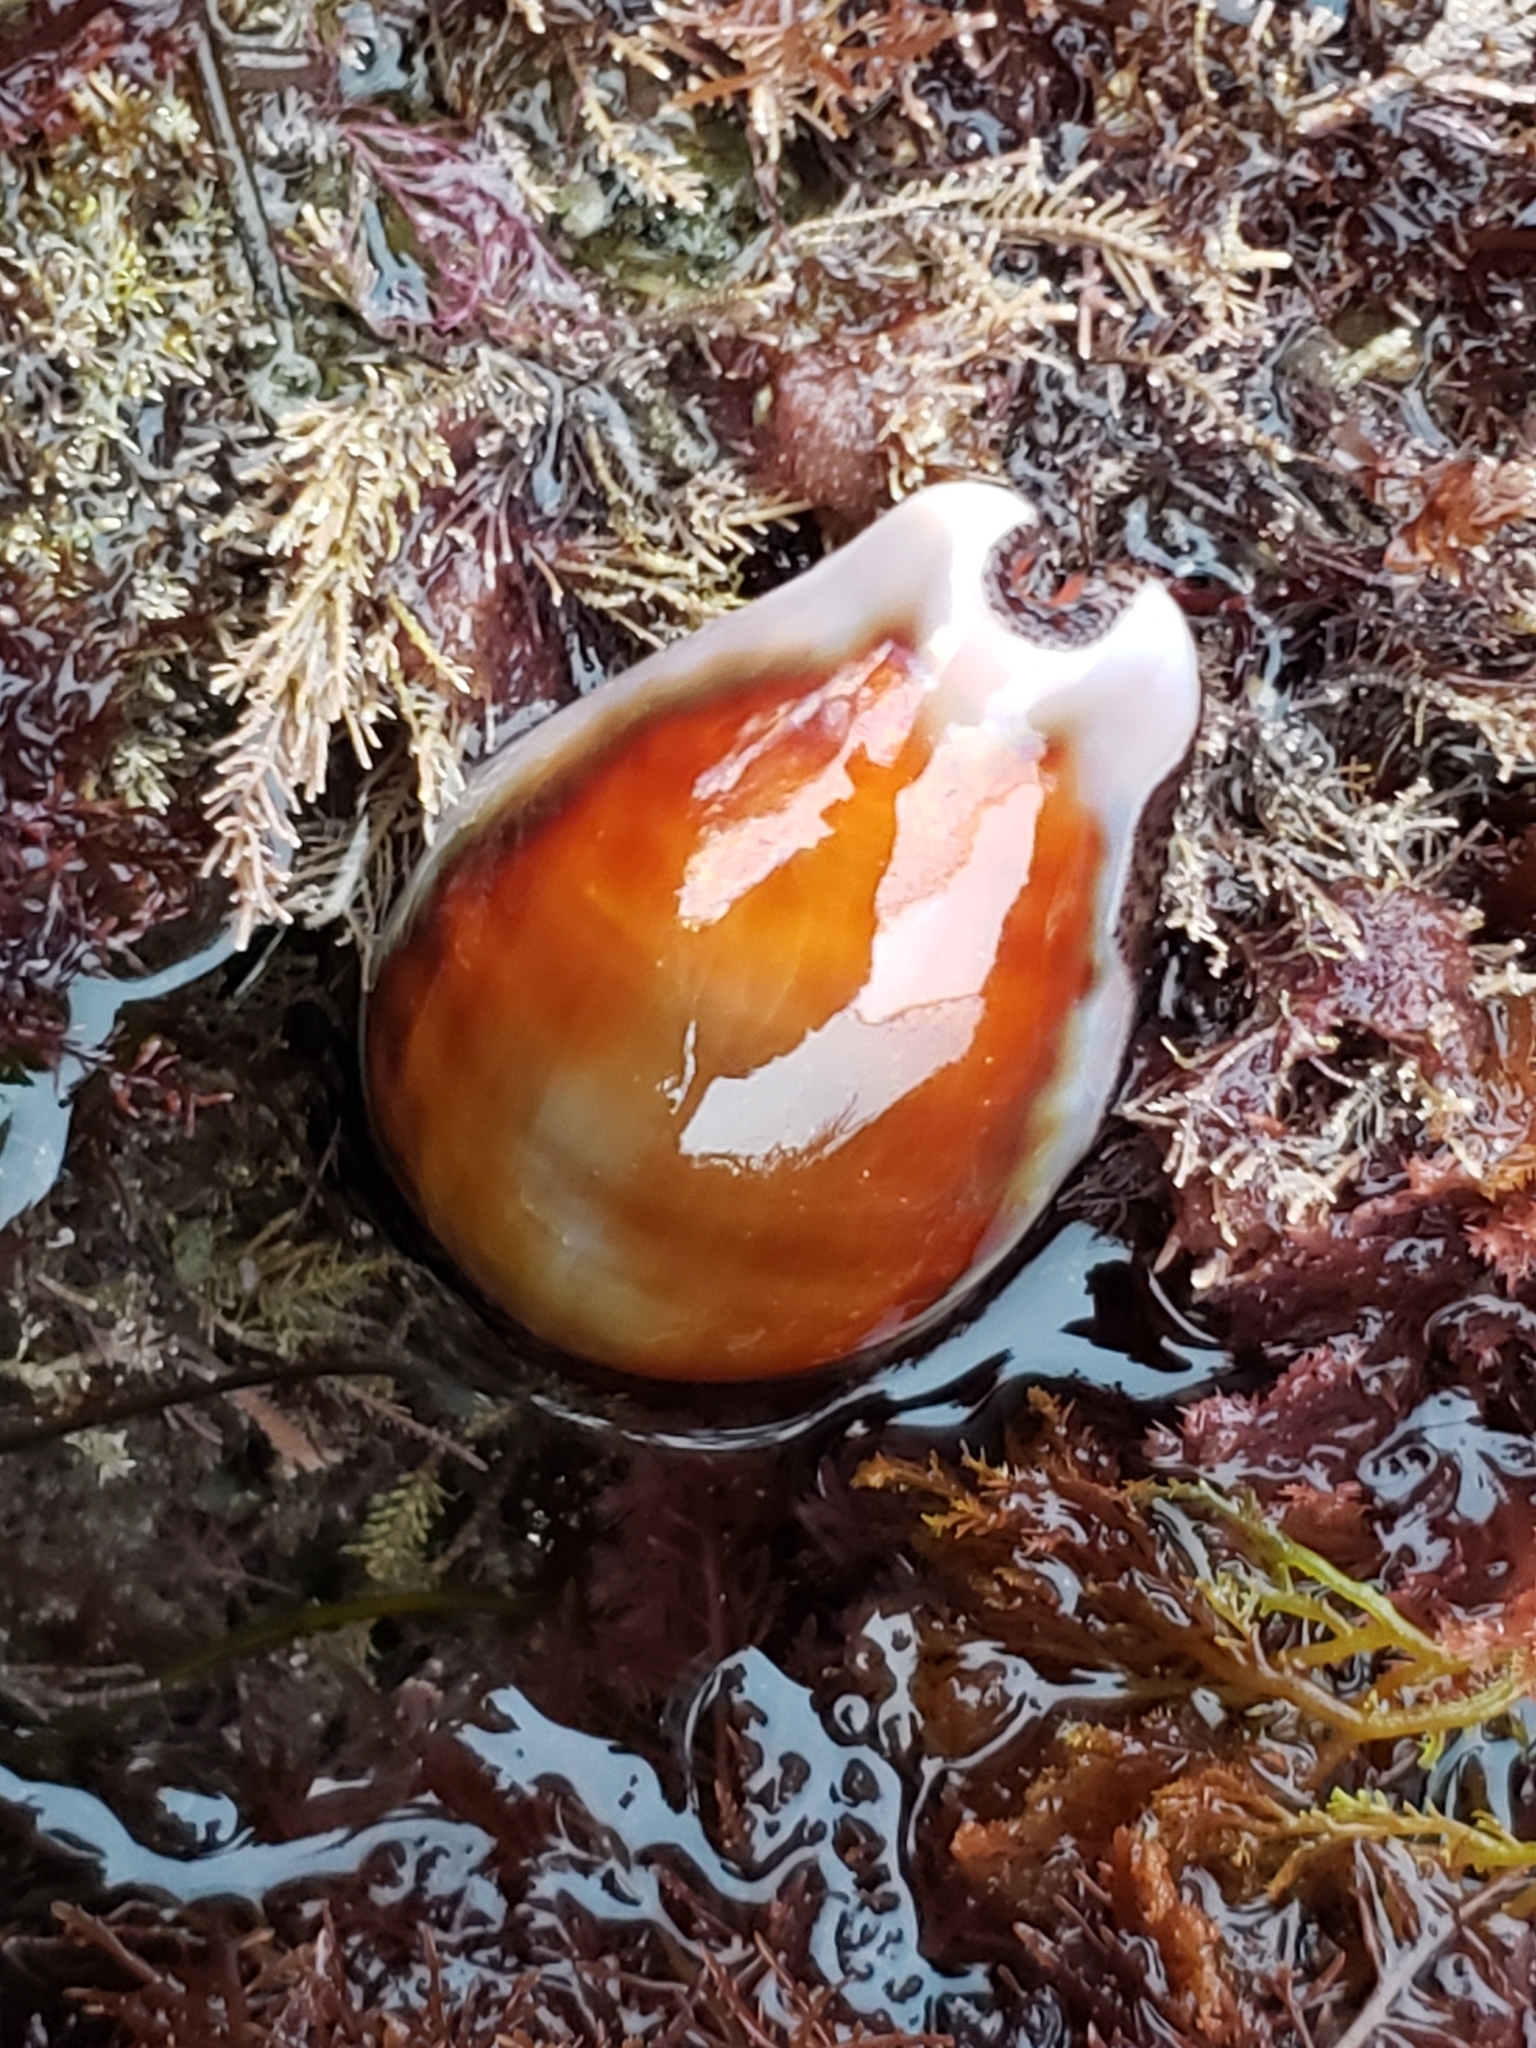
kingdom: Animalia
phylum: Mollusca
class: Gastropoda
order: Littorinimorpha
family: Cypraeidae
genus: Neobernaya
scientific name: Neobernaya spadicea
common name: Chestnut cowrie
